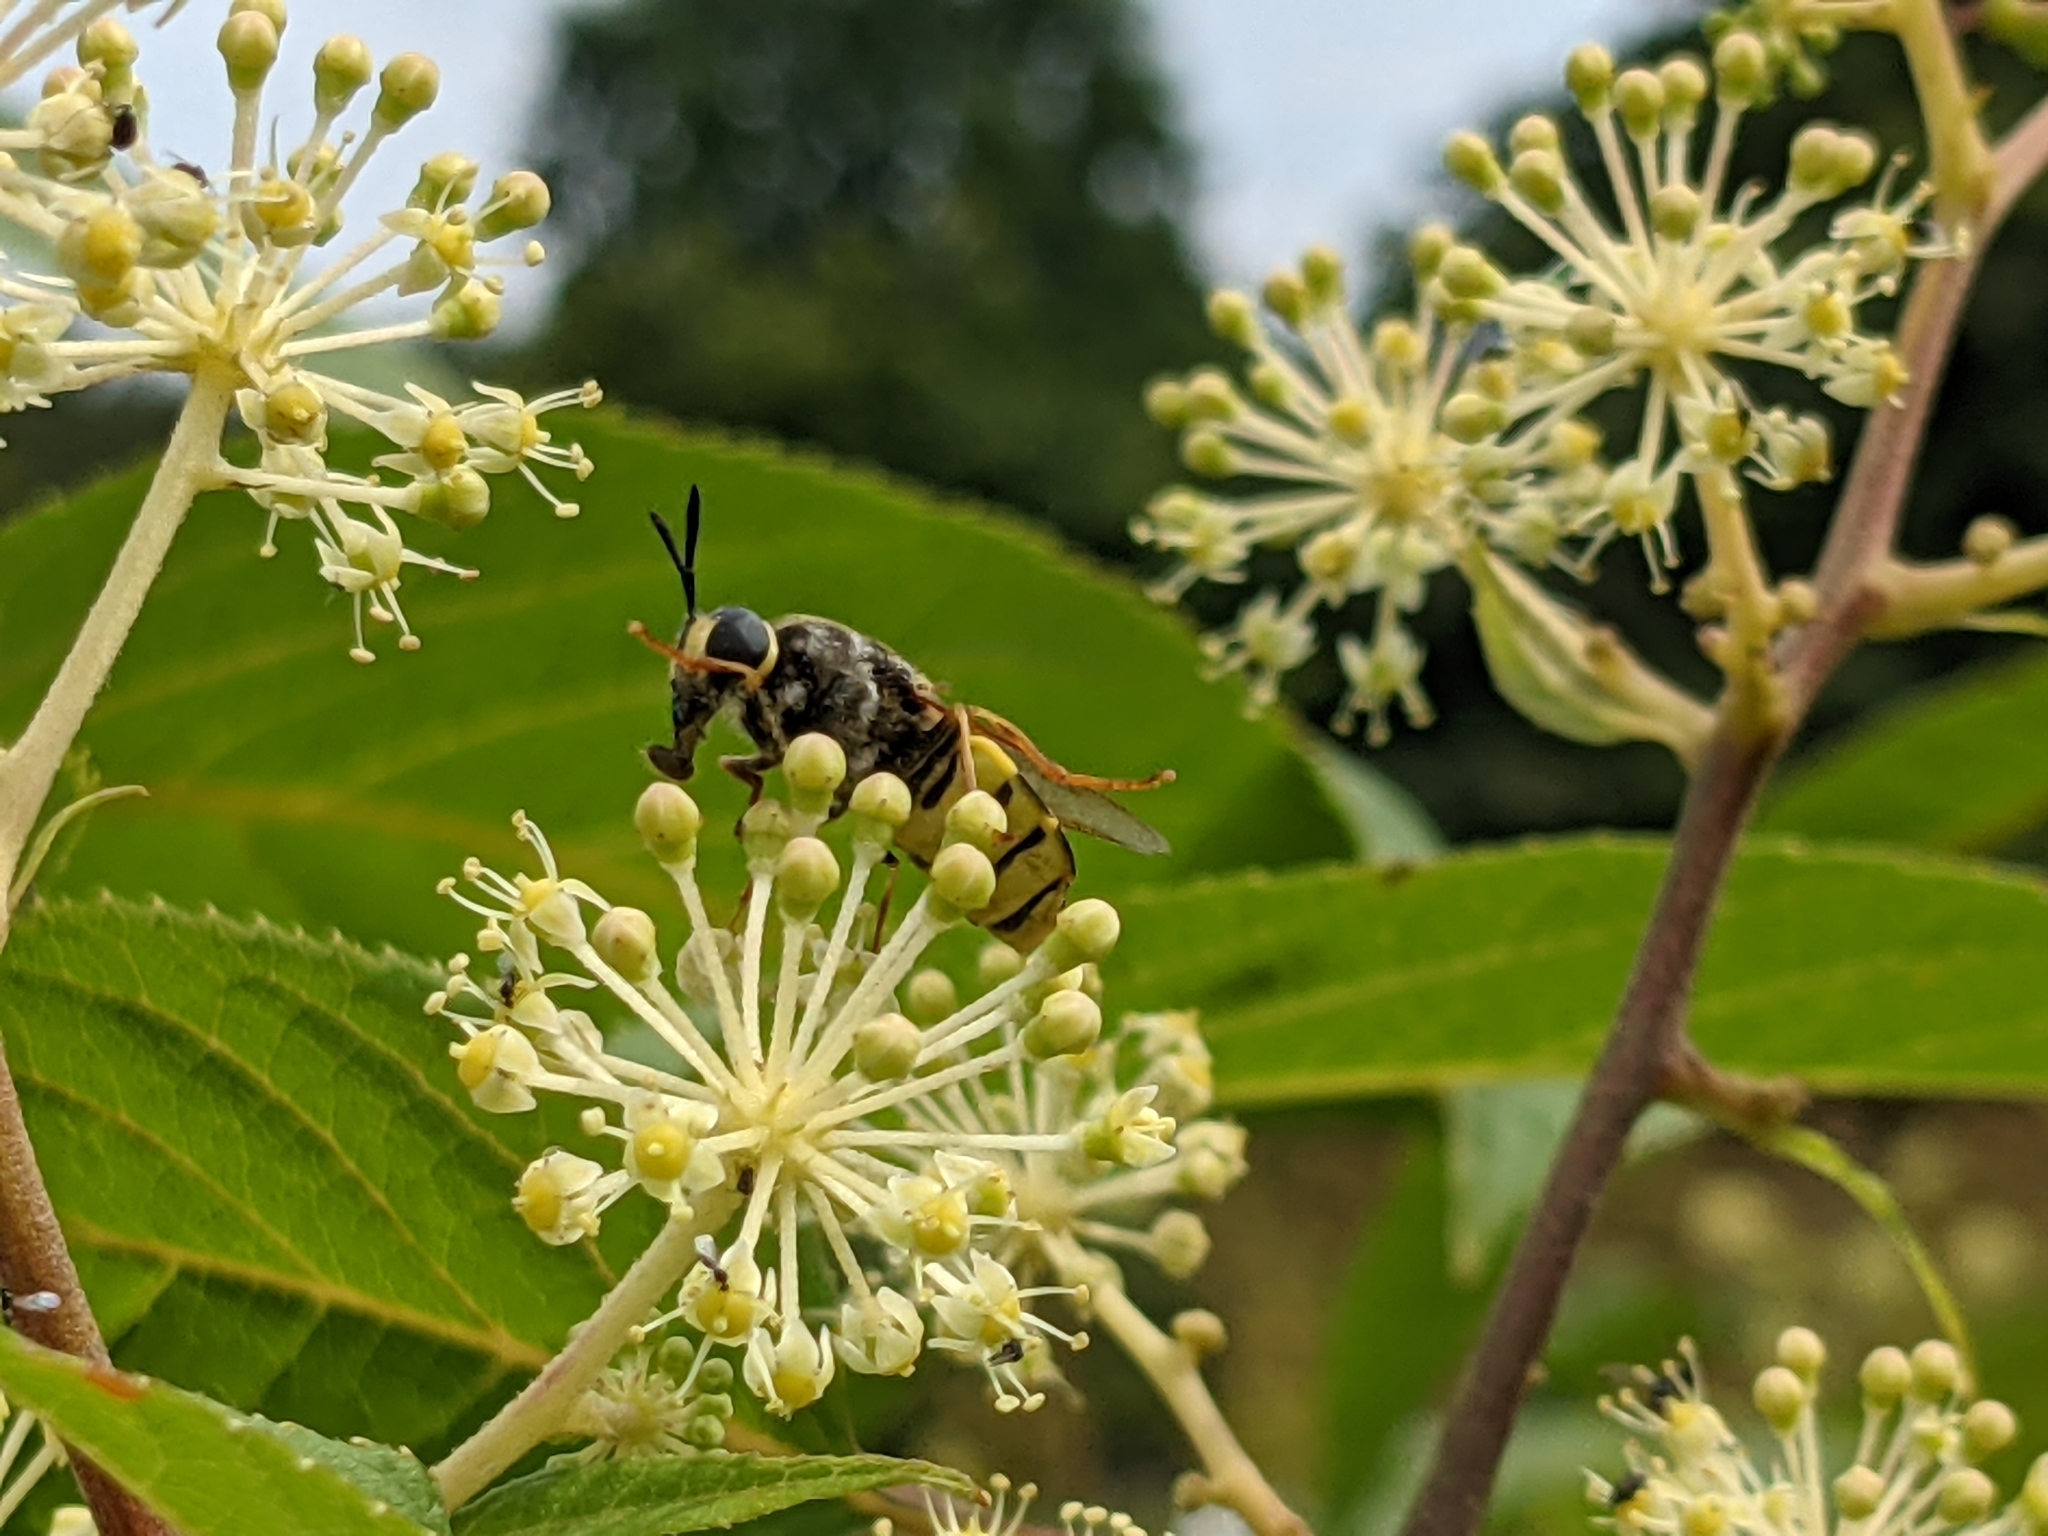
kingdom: Animalia
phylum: Arthropoda
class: Insecta
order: Diptera
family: Stratiomyidae
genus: Stratiomys
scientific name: Stratiomys potamida
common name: Banded general
